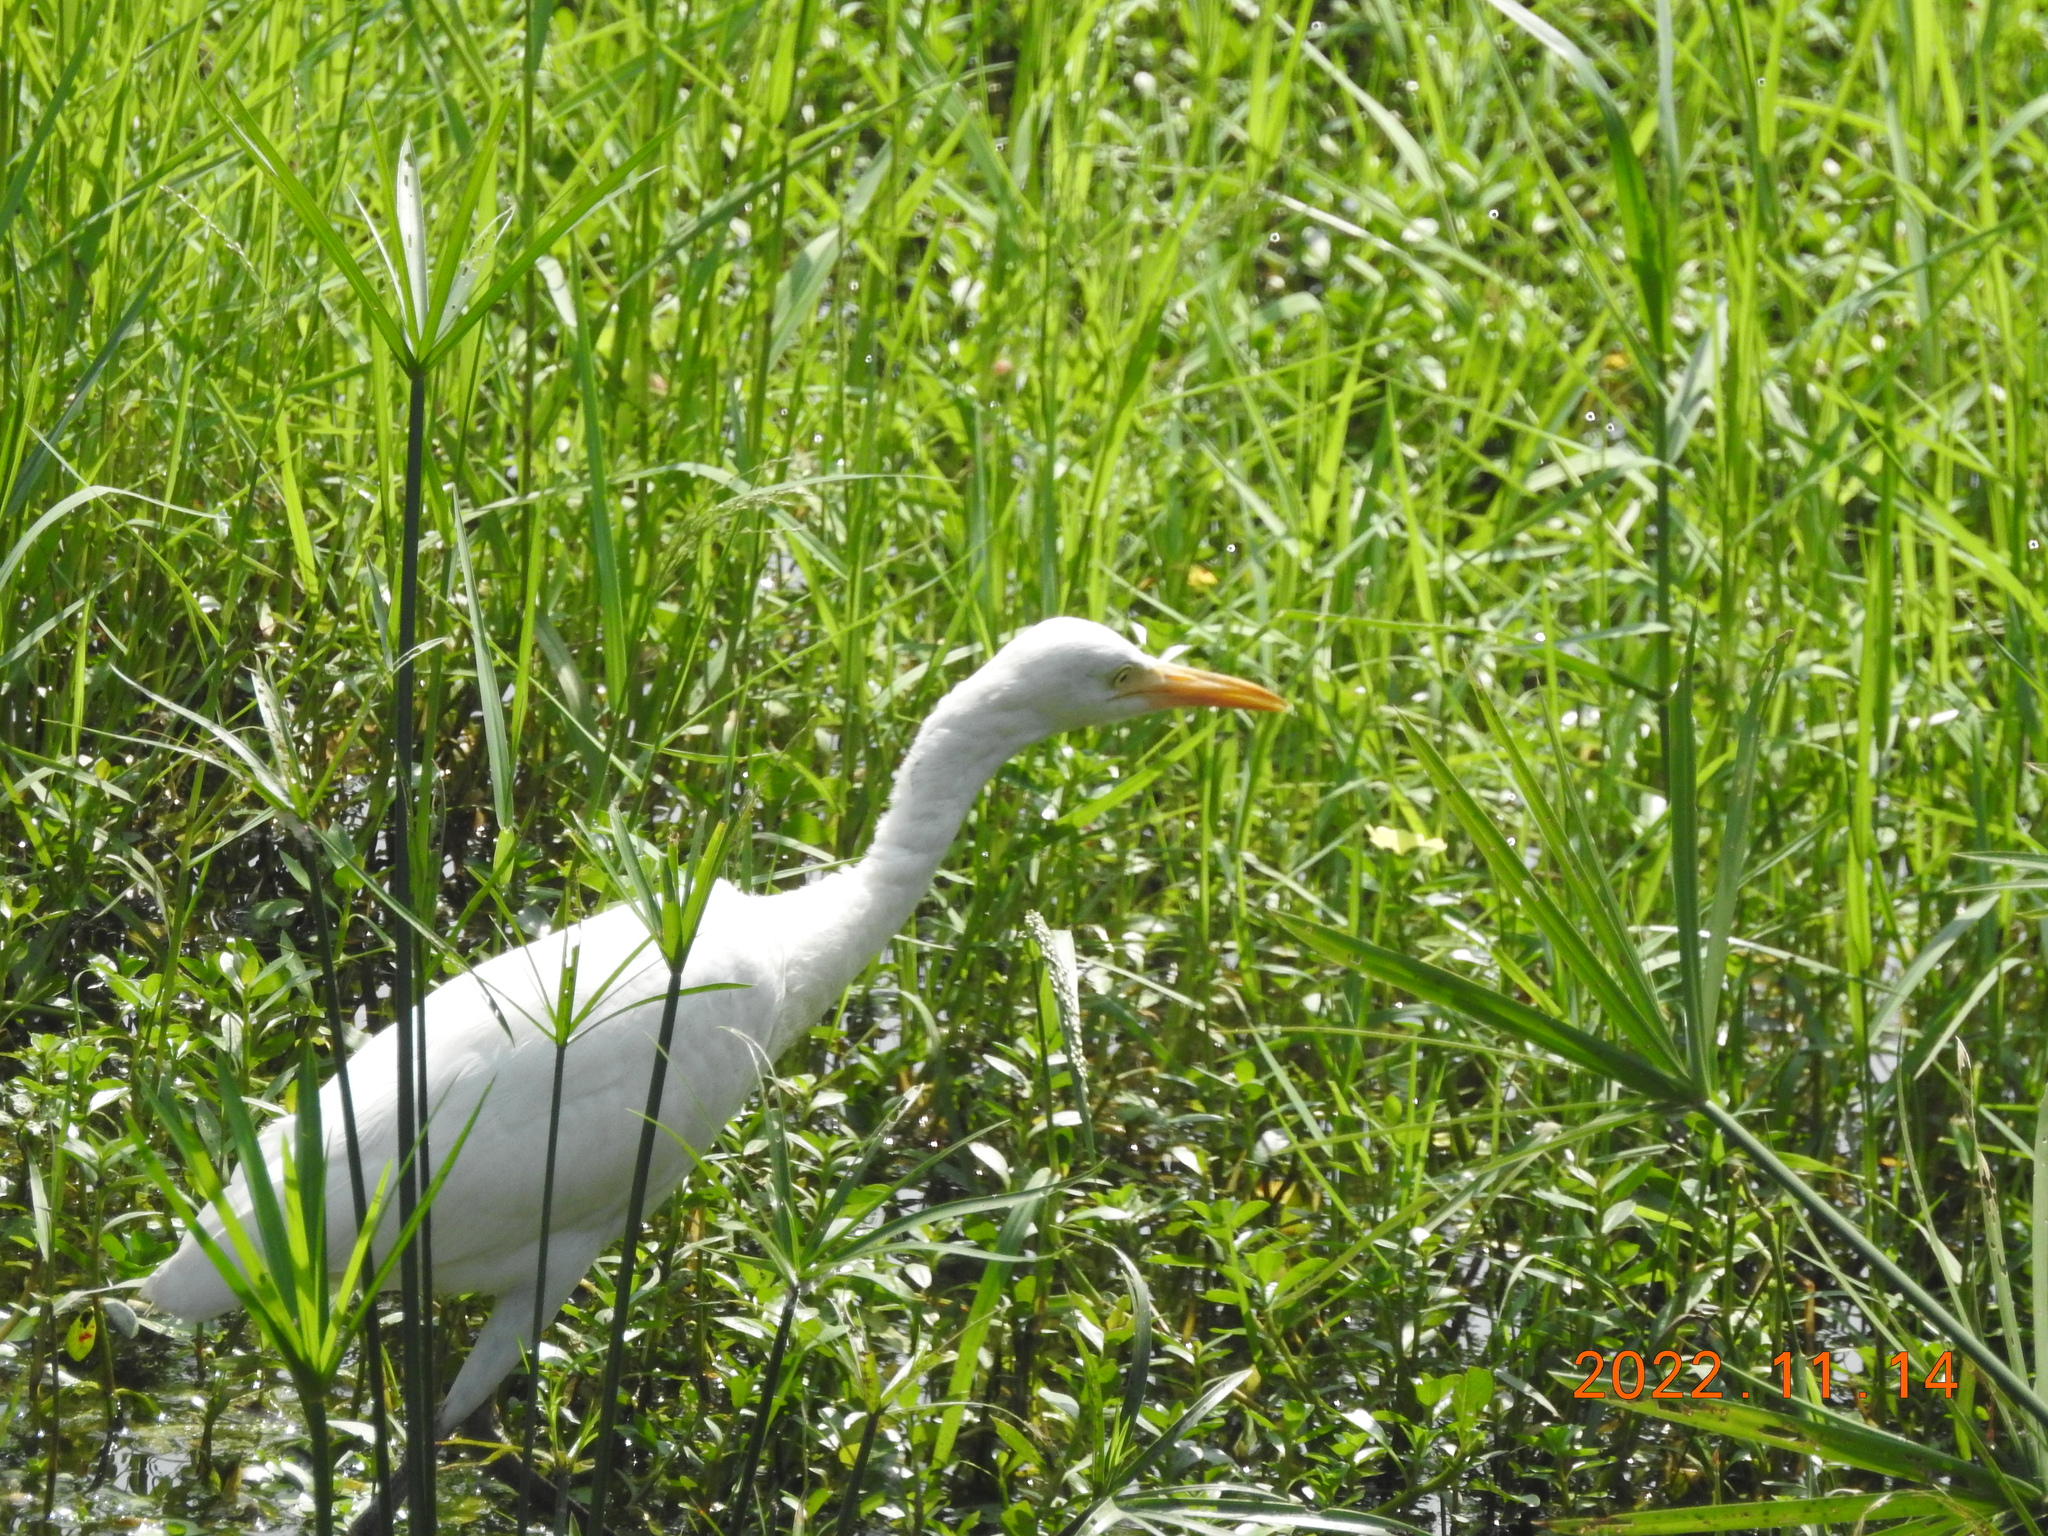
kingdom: Animalia
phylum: Chordata
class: Aves
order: Pelecaniformes
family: Ardeidae
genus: Bubulcus
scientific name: Bubulcus coromandus
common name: Eastern cattle egret
